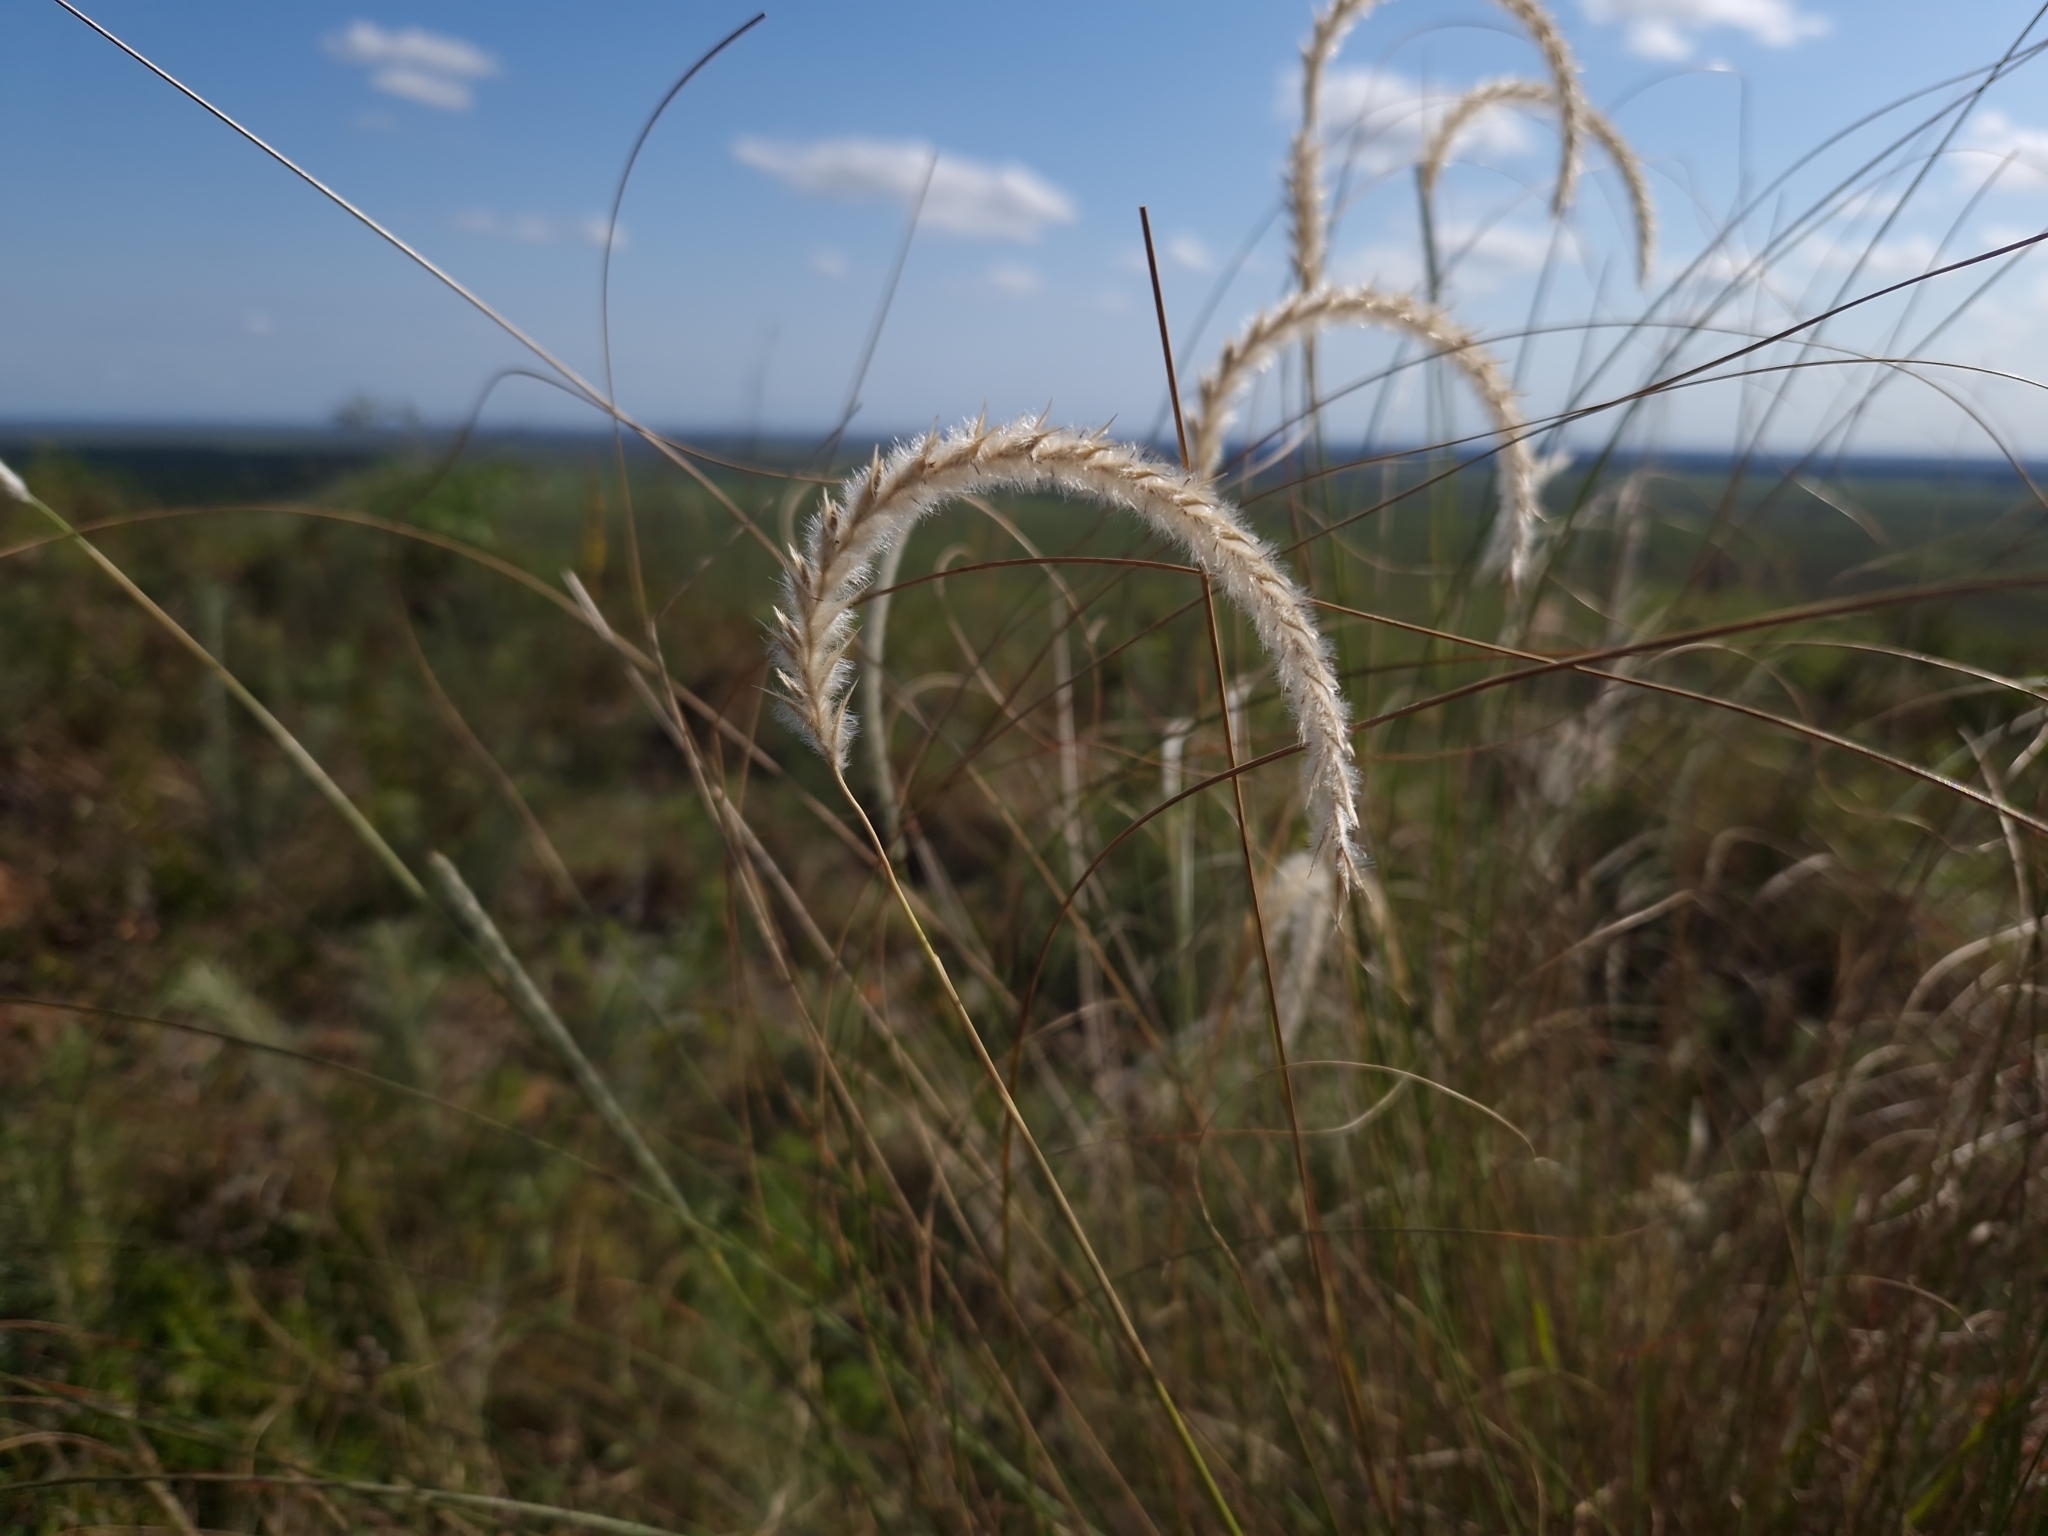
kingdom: Plantae
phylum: Tracheophyta
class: Liliopsida
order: Poales
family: Poaceae
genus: Elionurus
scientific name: Elionurus muticus
